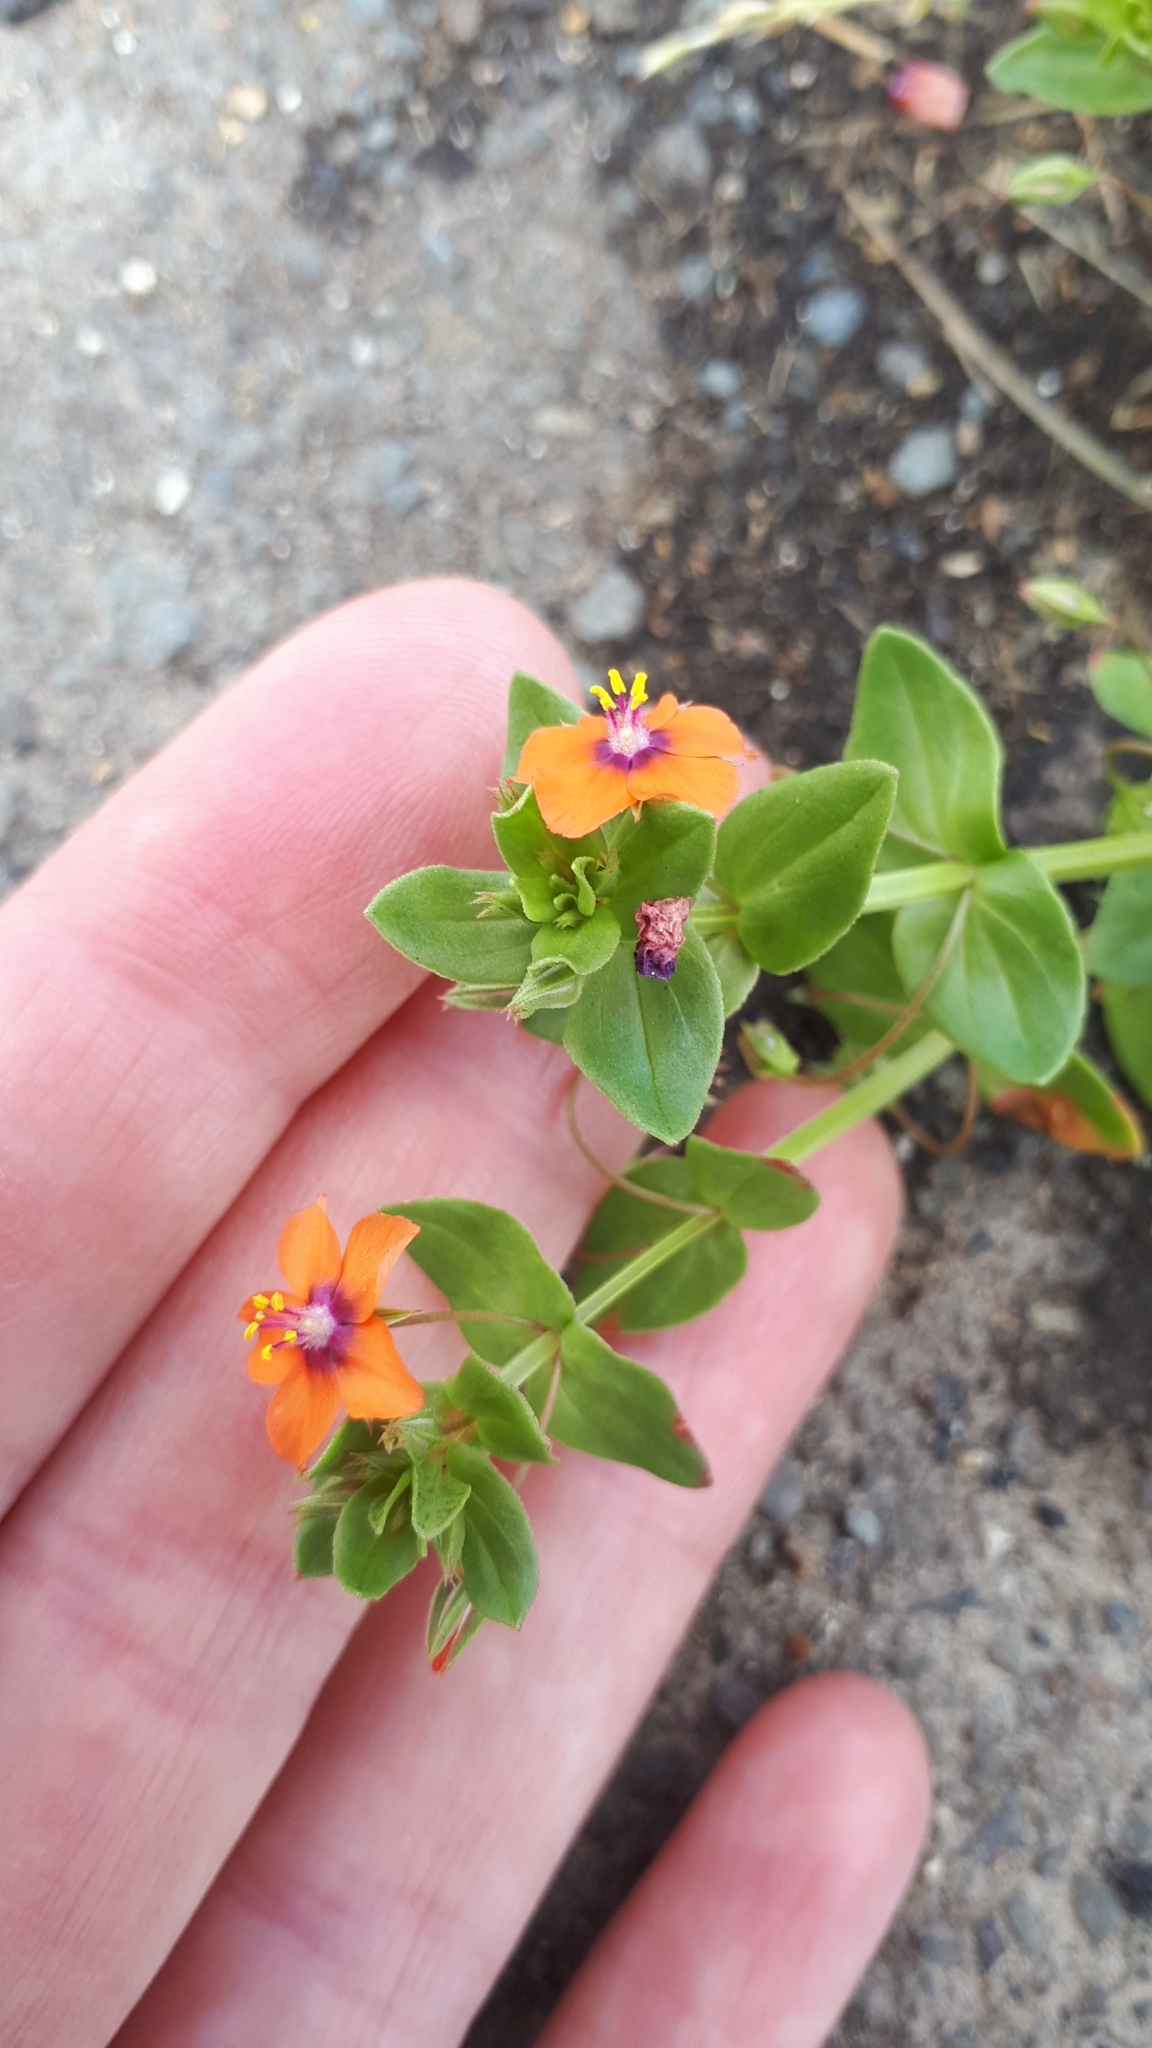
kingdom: Plantae
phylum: Tracheophyta
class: Magnoliopsida
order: Ericales
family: Primulaceae
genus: Lysimachia
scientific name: Lysimachia arvensis
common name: Scarlet pimpernel
